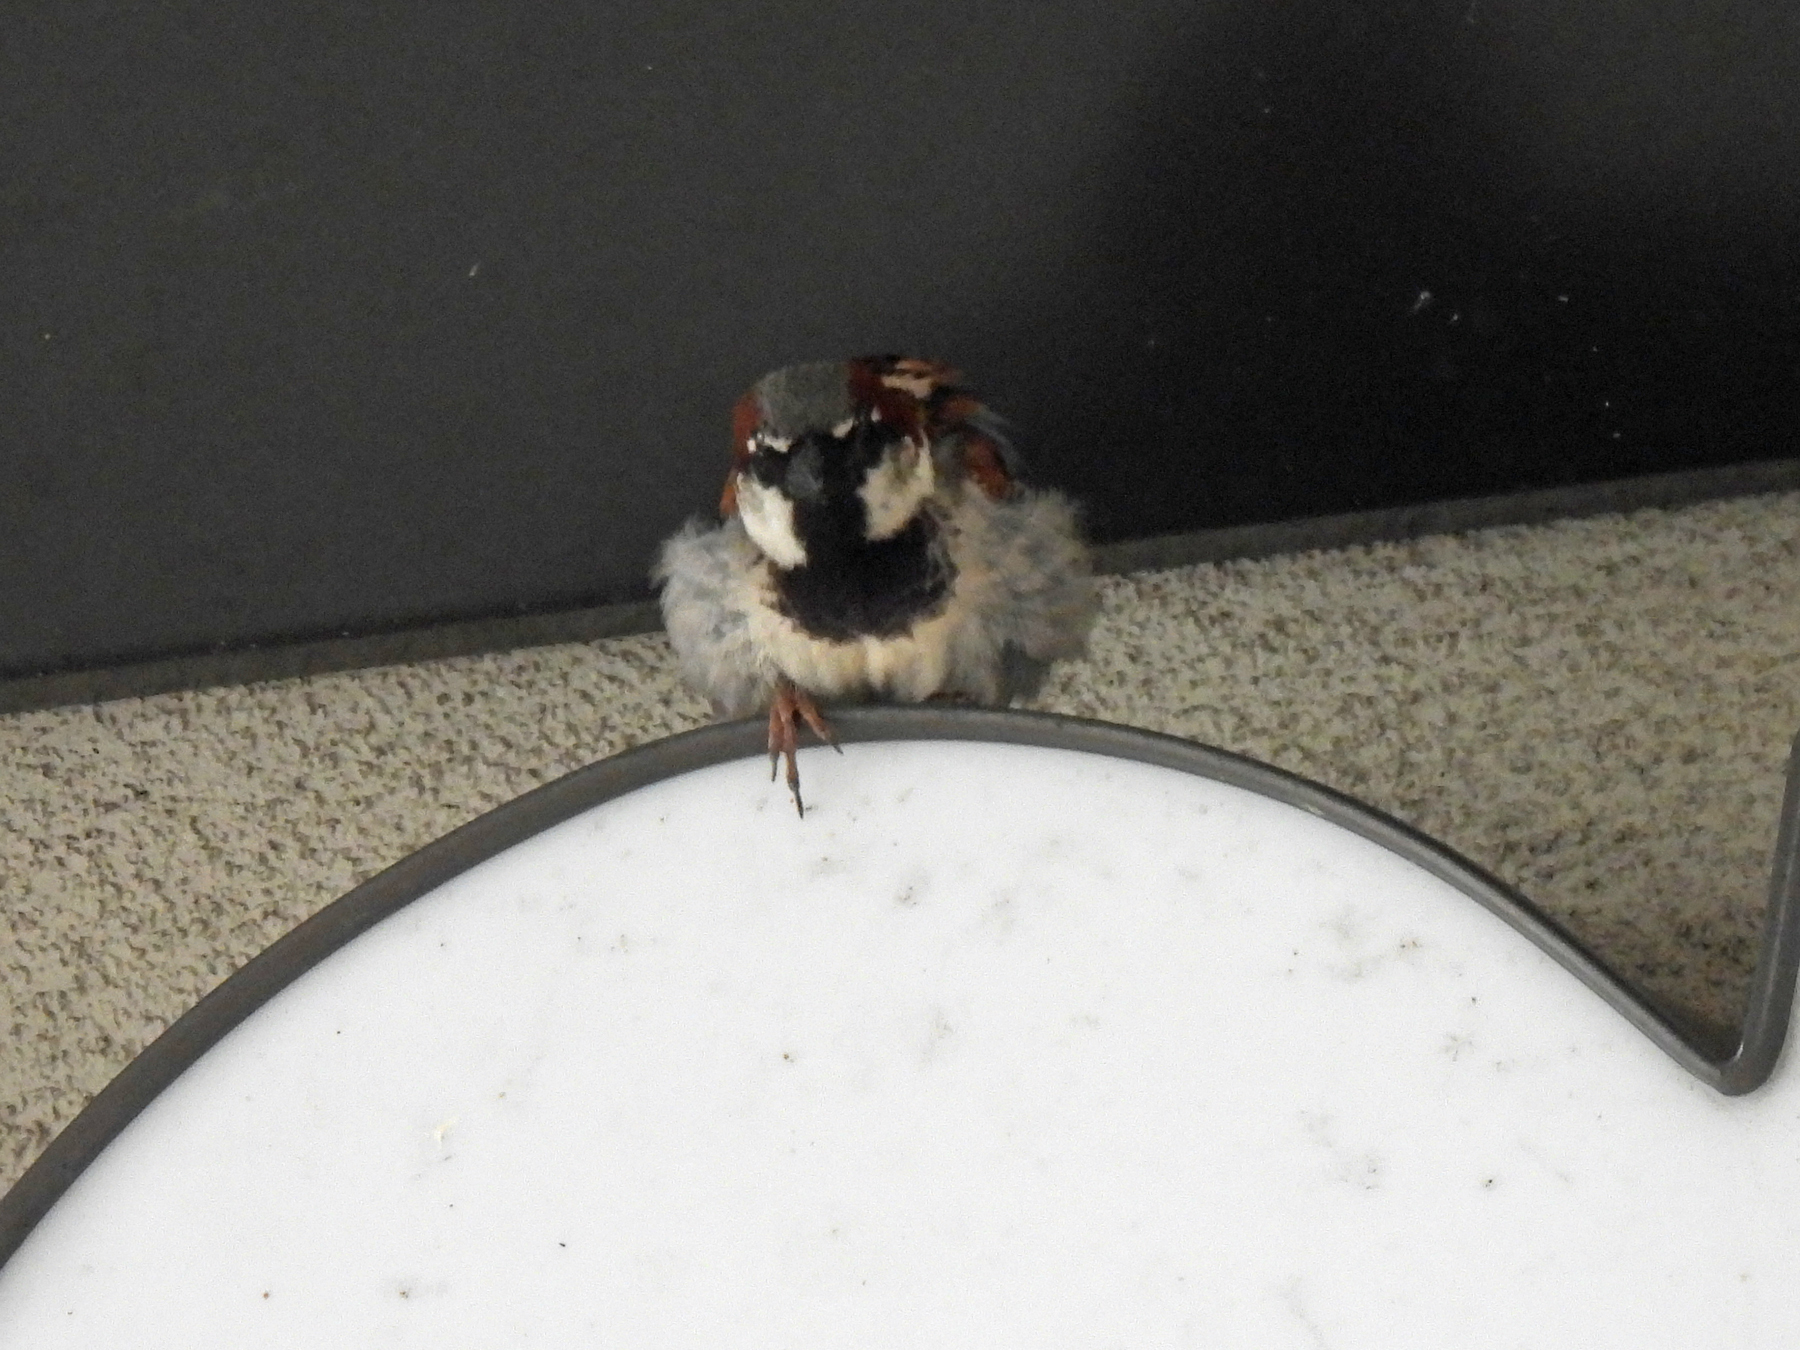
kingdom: Animalia
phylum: Chordata
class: Aves
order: Passeriformes
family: Passeridae
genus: Passer
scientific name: Passer domesticus
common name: House sparrow
